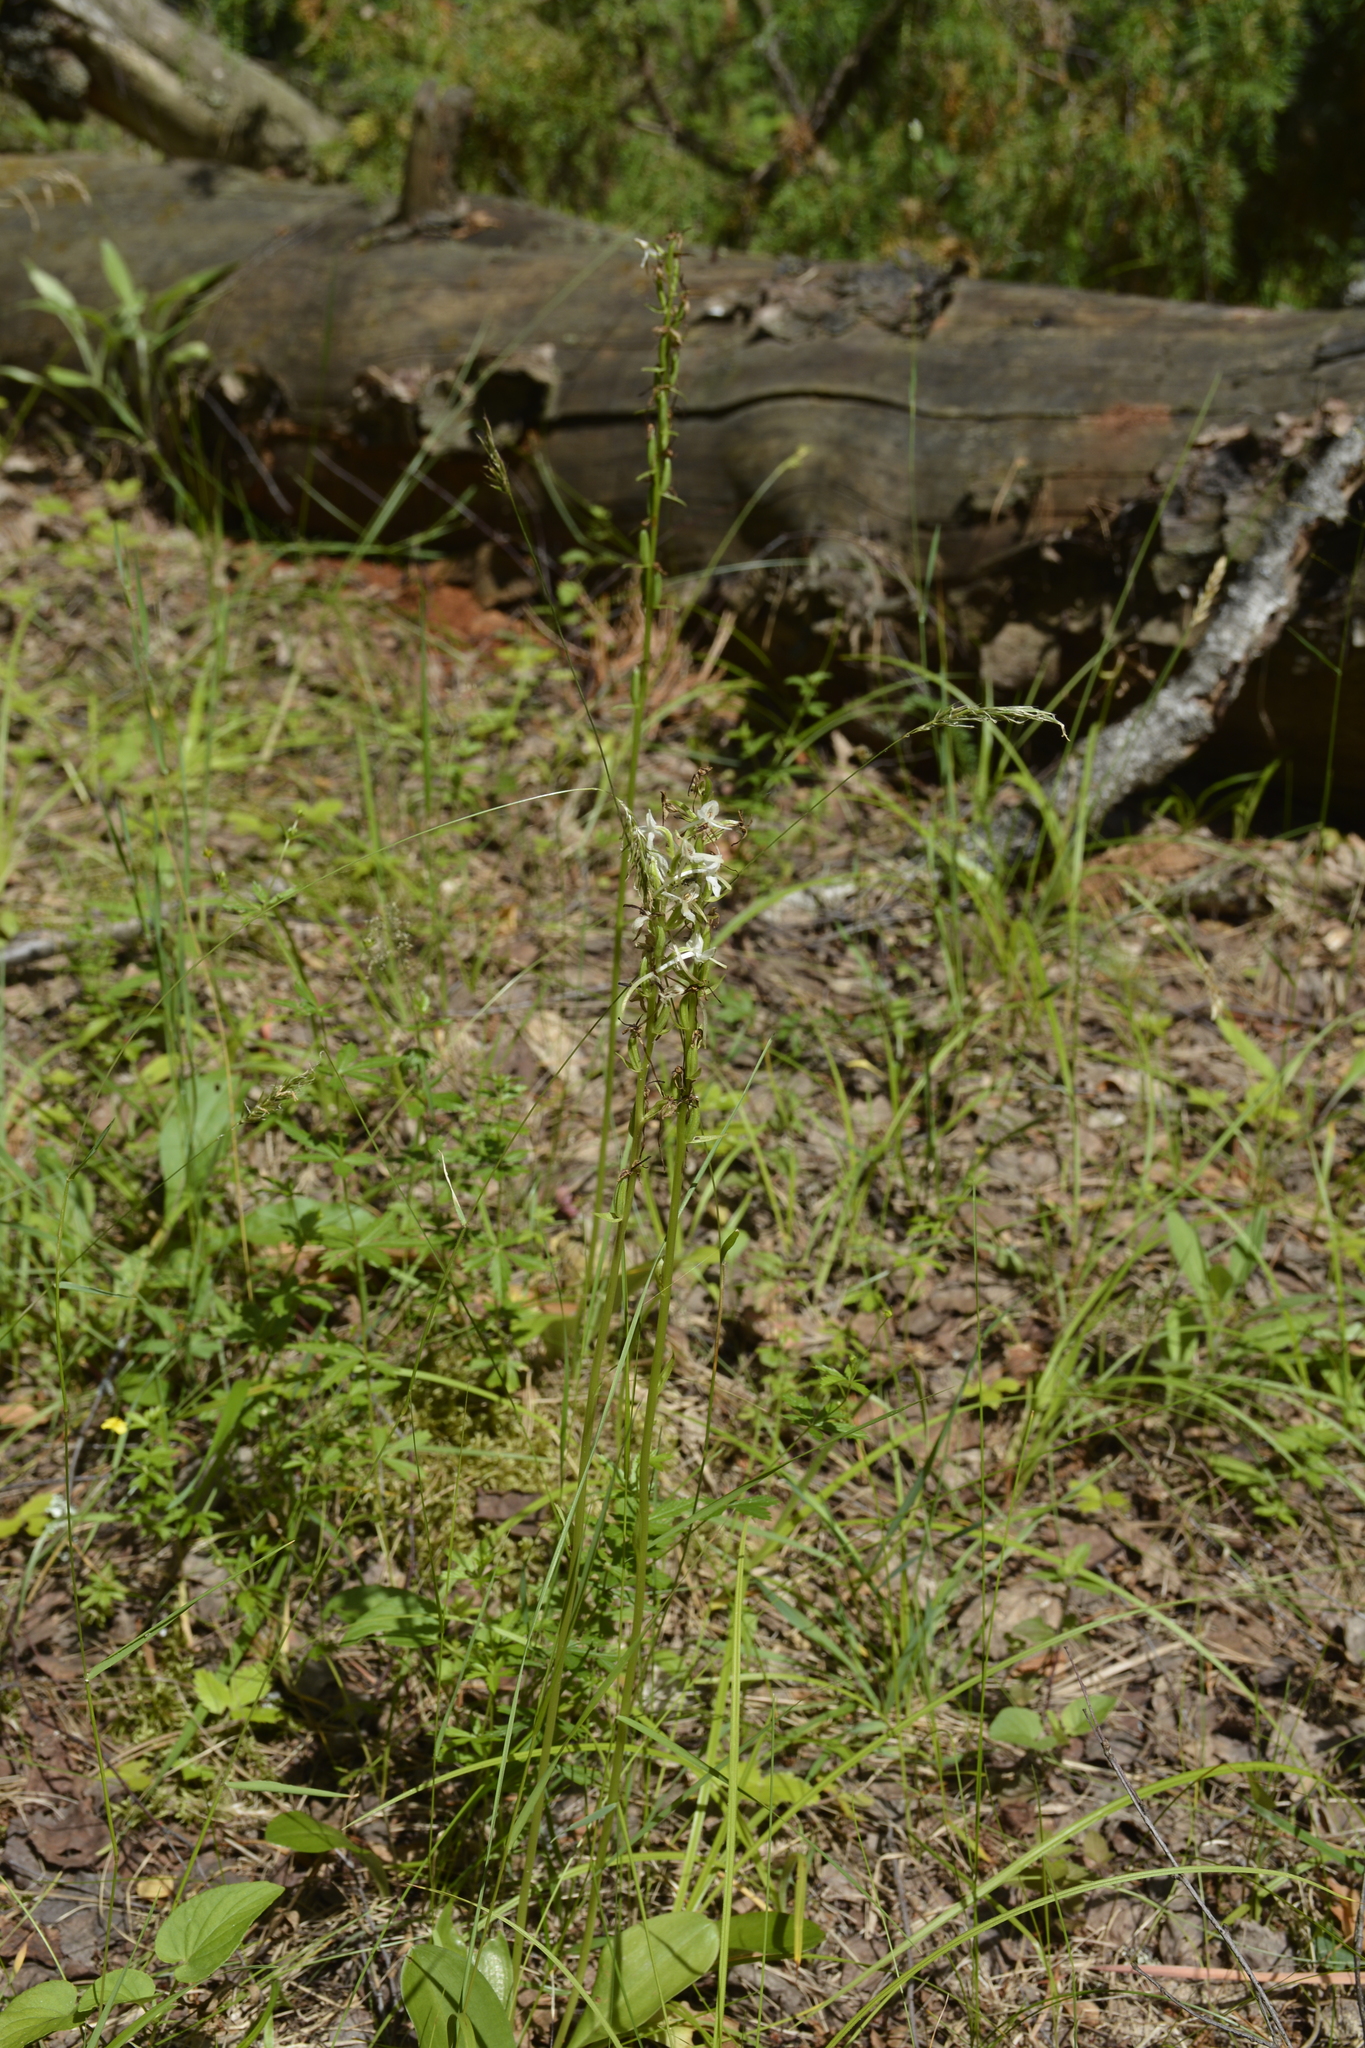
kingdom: Plantae
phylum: Tracheophyta
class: Liliopsida
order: Asparagales
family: Orchidaceae
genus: Platanthera
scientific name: Platanthera bifolia
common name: Lesser butterfly-orchid
